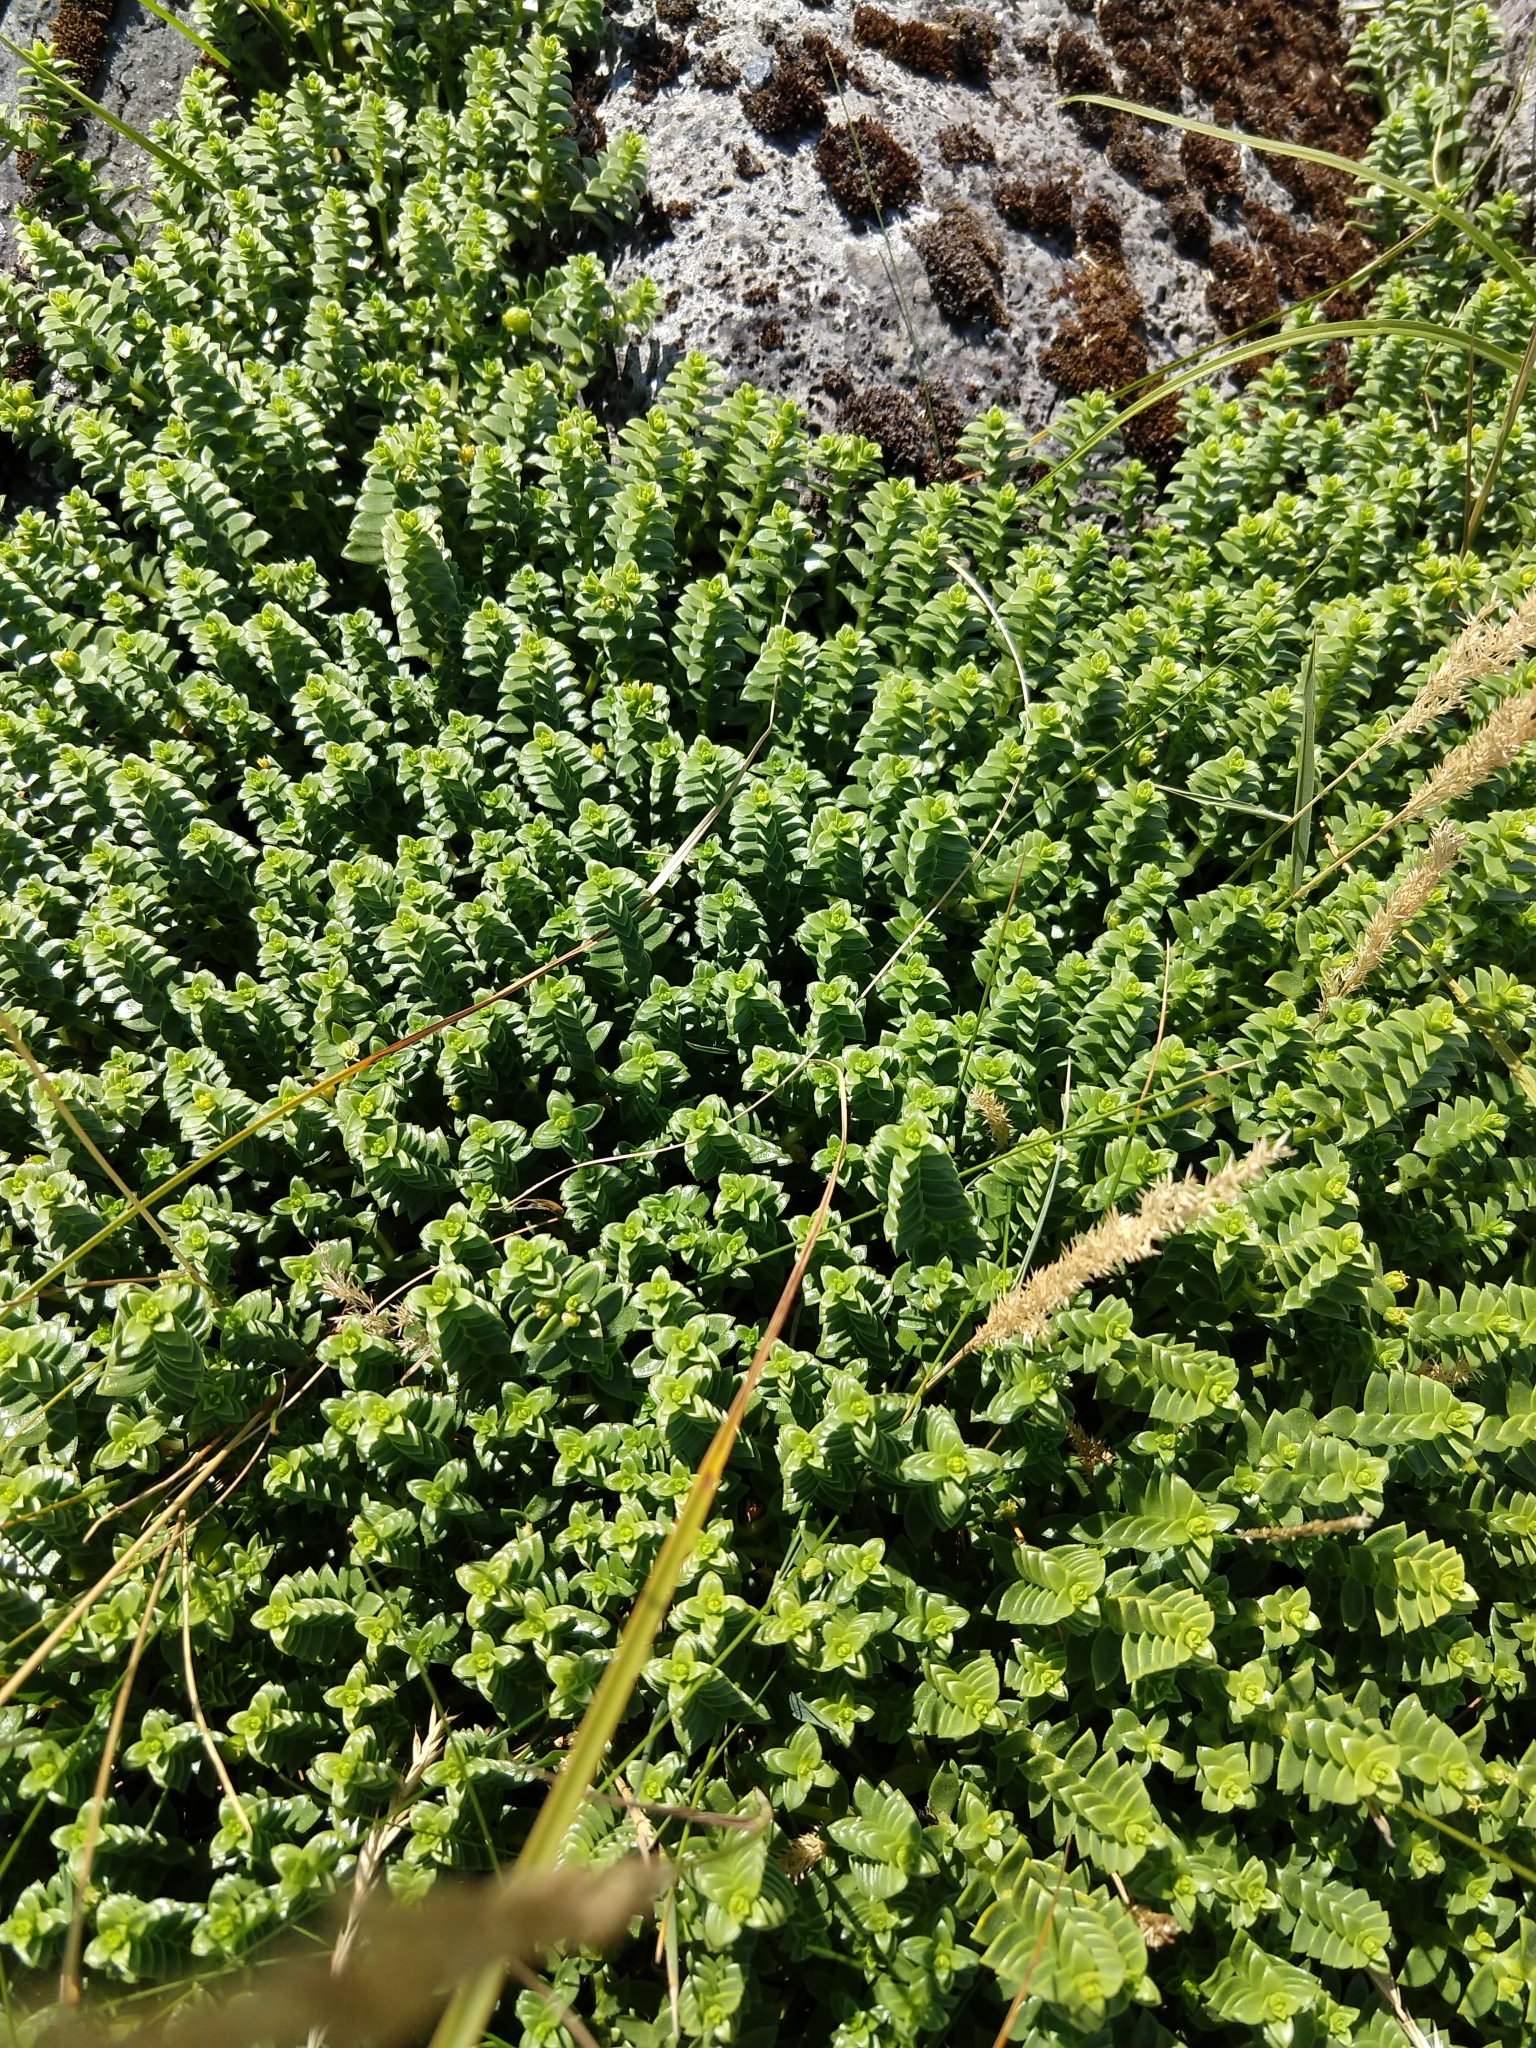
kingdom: Plantae
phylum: Tracheophyta
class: Magnoliopsida
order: Caryophyllales
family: Caryophyllaceae
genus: Honckenya
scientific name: Honckenya peploides
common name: Sea sandwort
